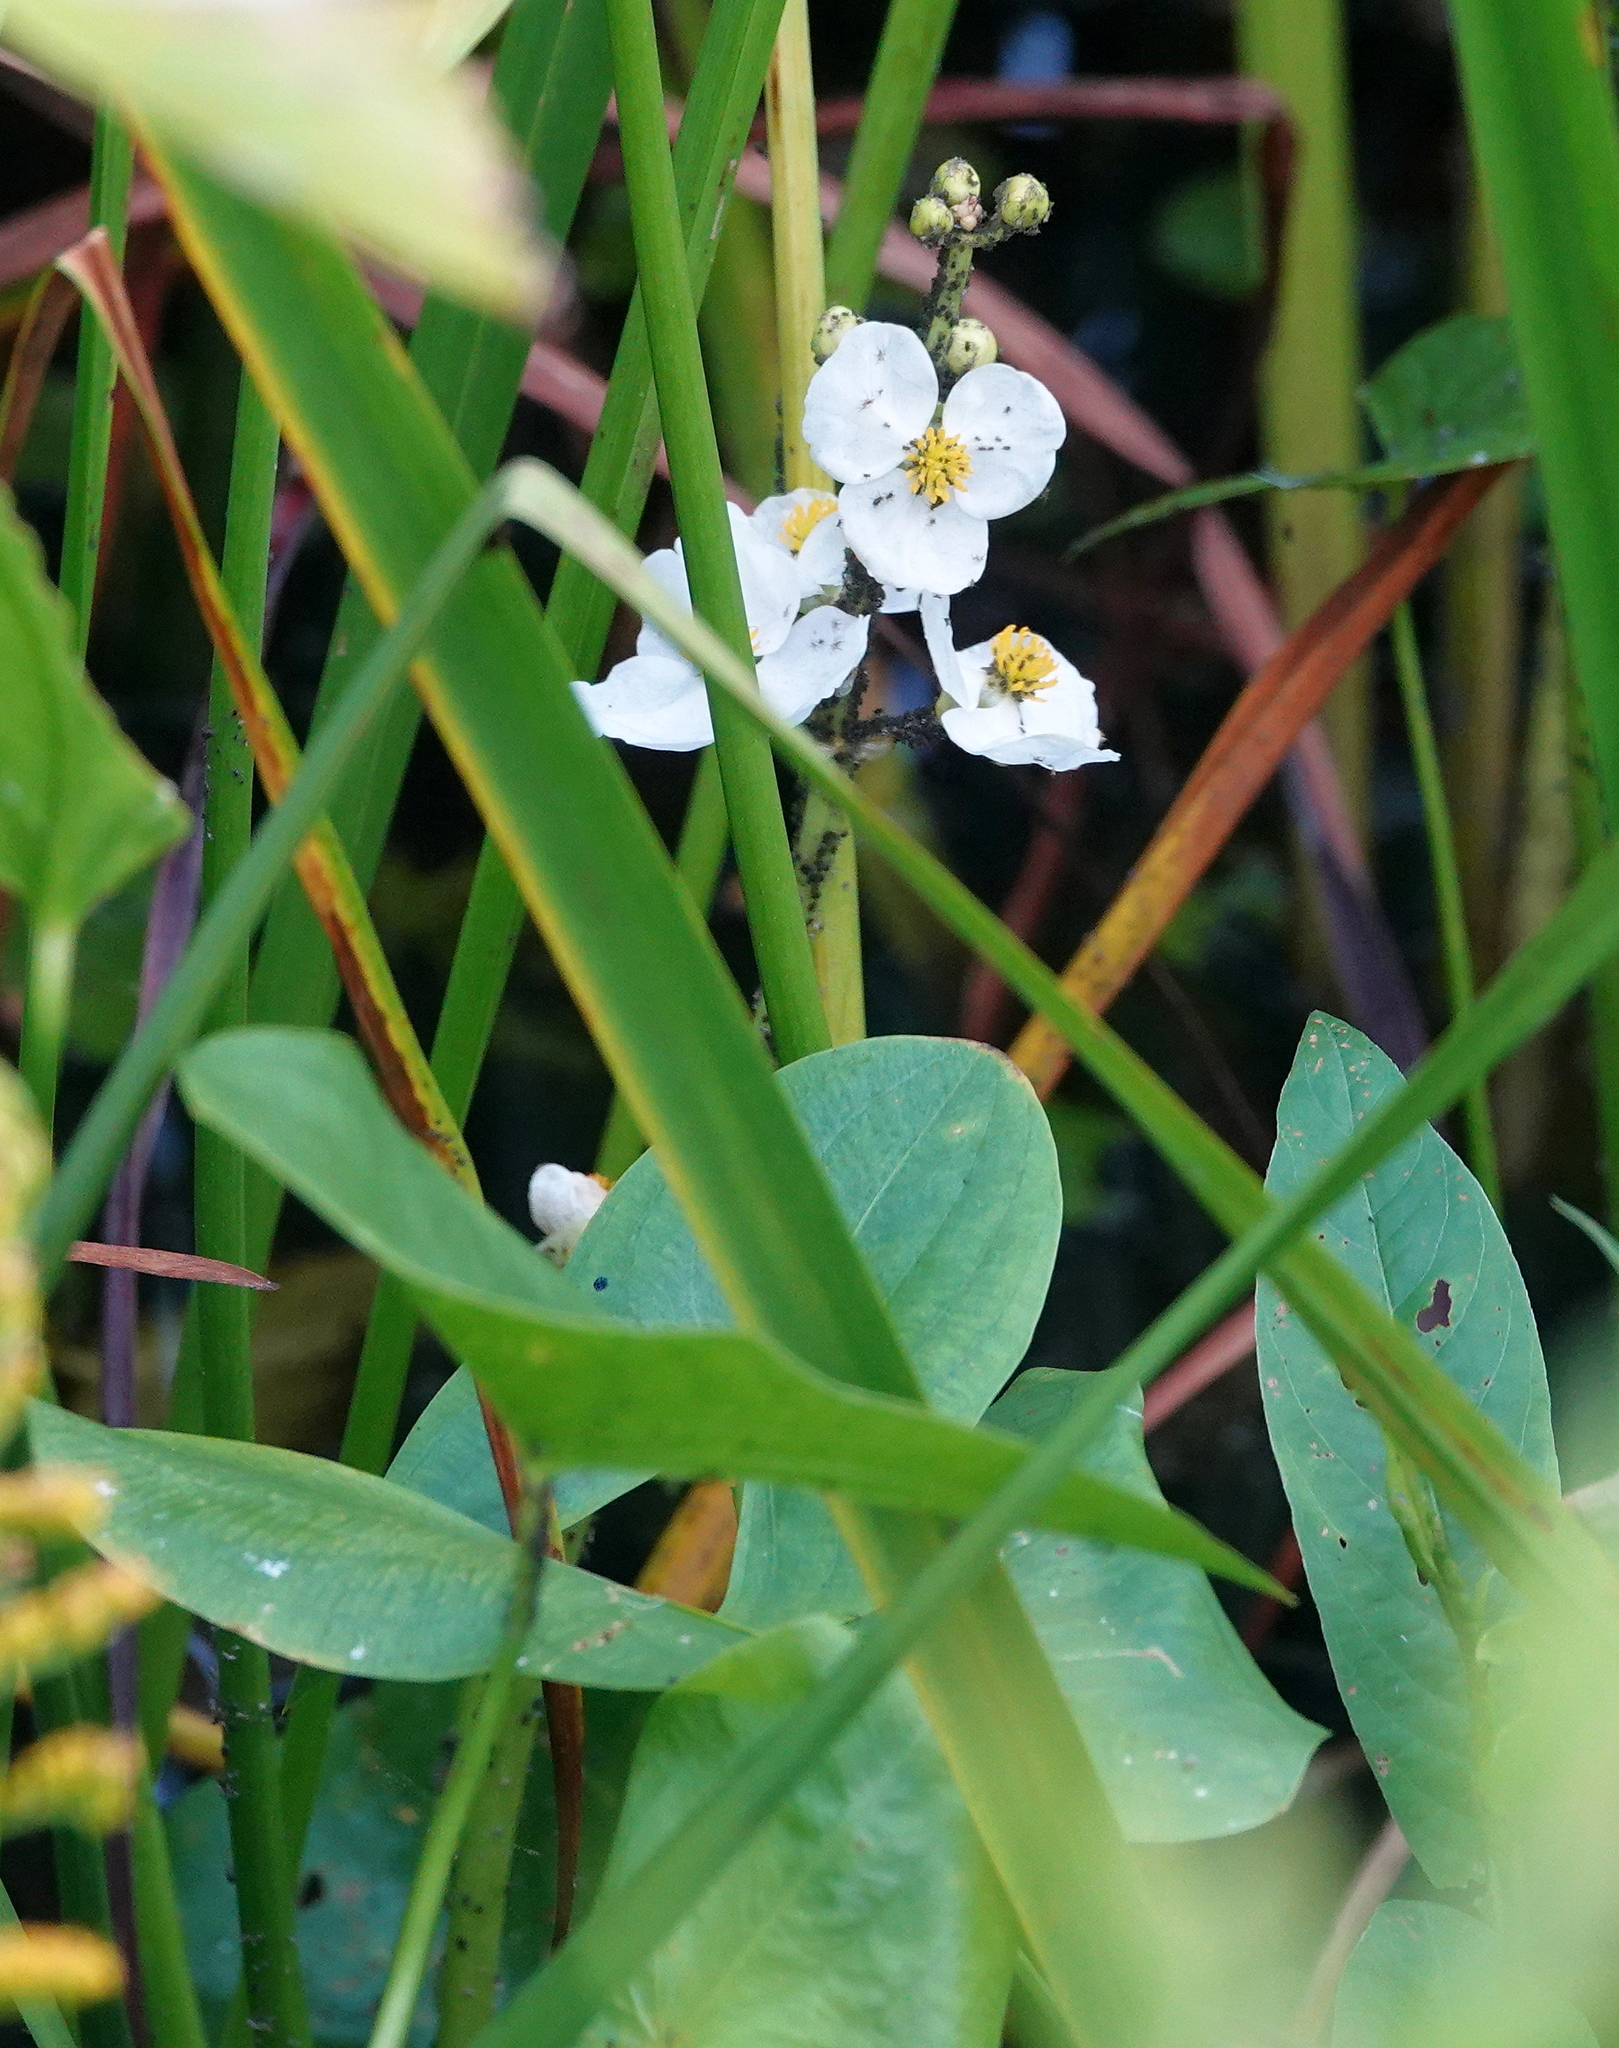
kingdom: Plantae
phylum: Tracheophyta
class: Liliopsida
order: Alismatales
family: Alismataceae
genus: Sagittaria
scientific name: Sagittaria latifolia
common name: Duck-potato
